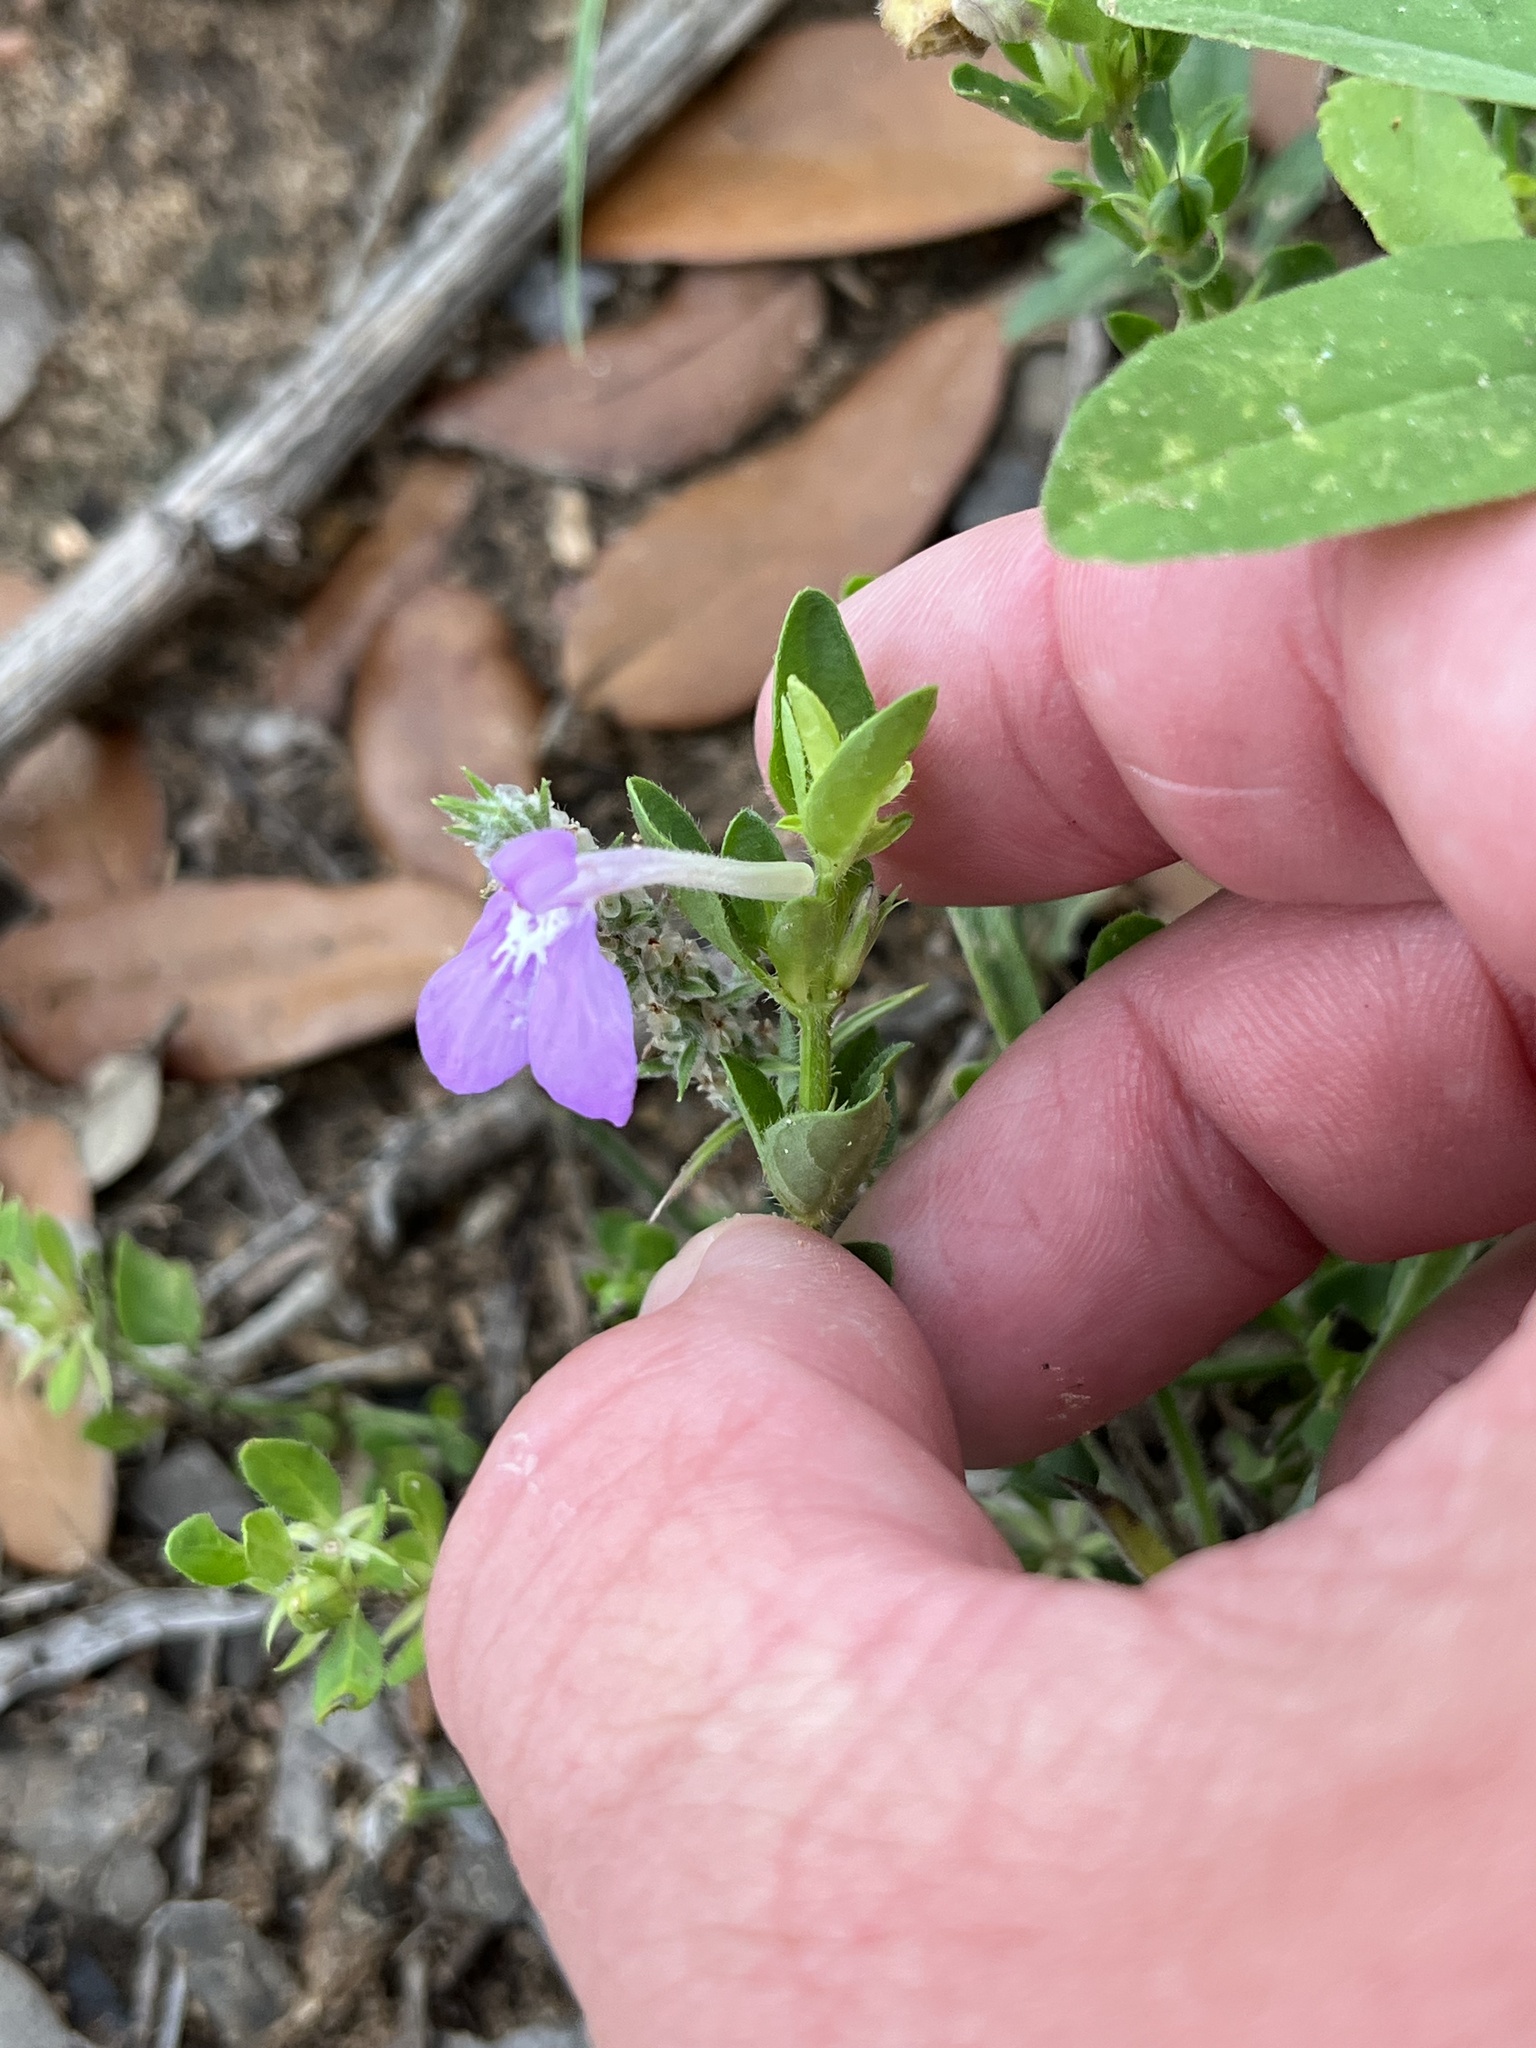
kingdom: Plantae
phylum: Tracheophyta
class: Magnoliopsida
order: Lamiales
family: Acanthaceae
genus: Justicia
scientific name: Justicia pilosella
